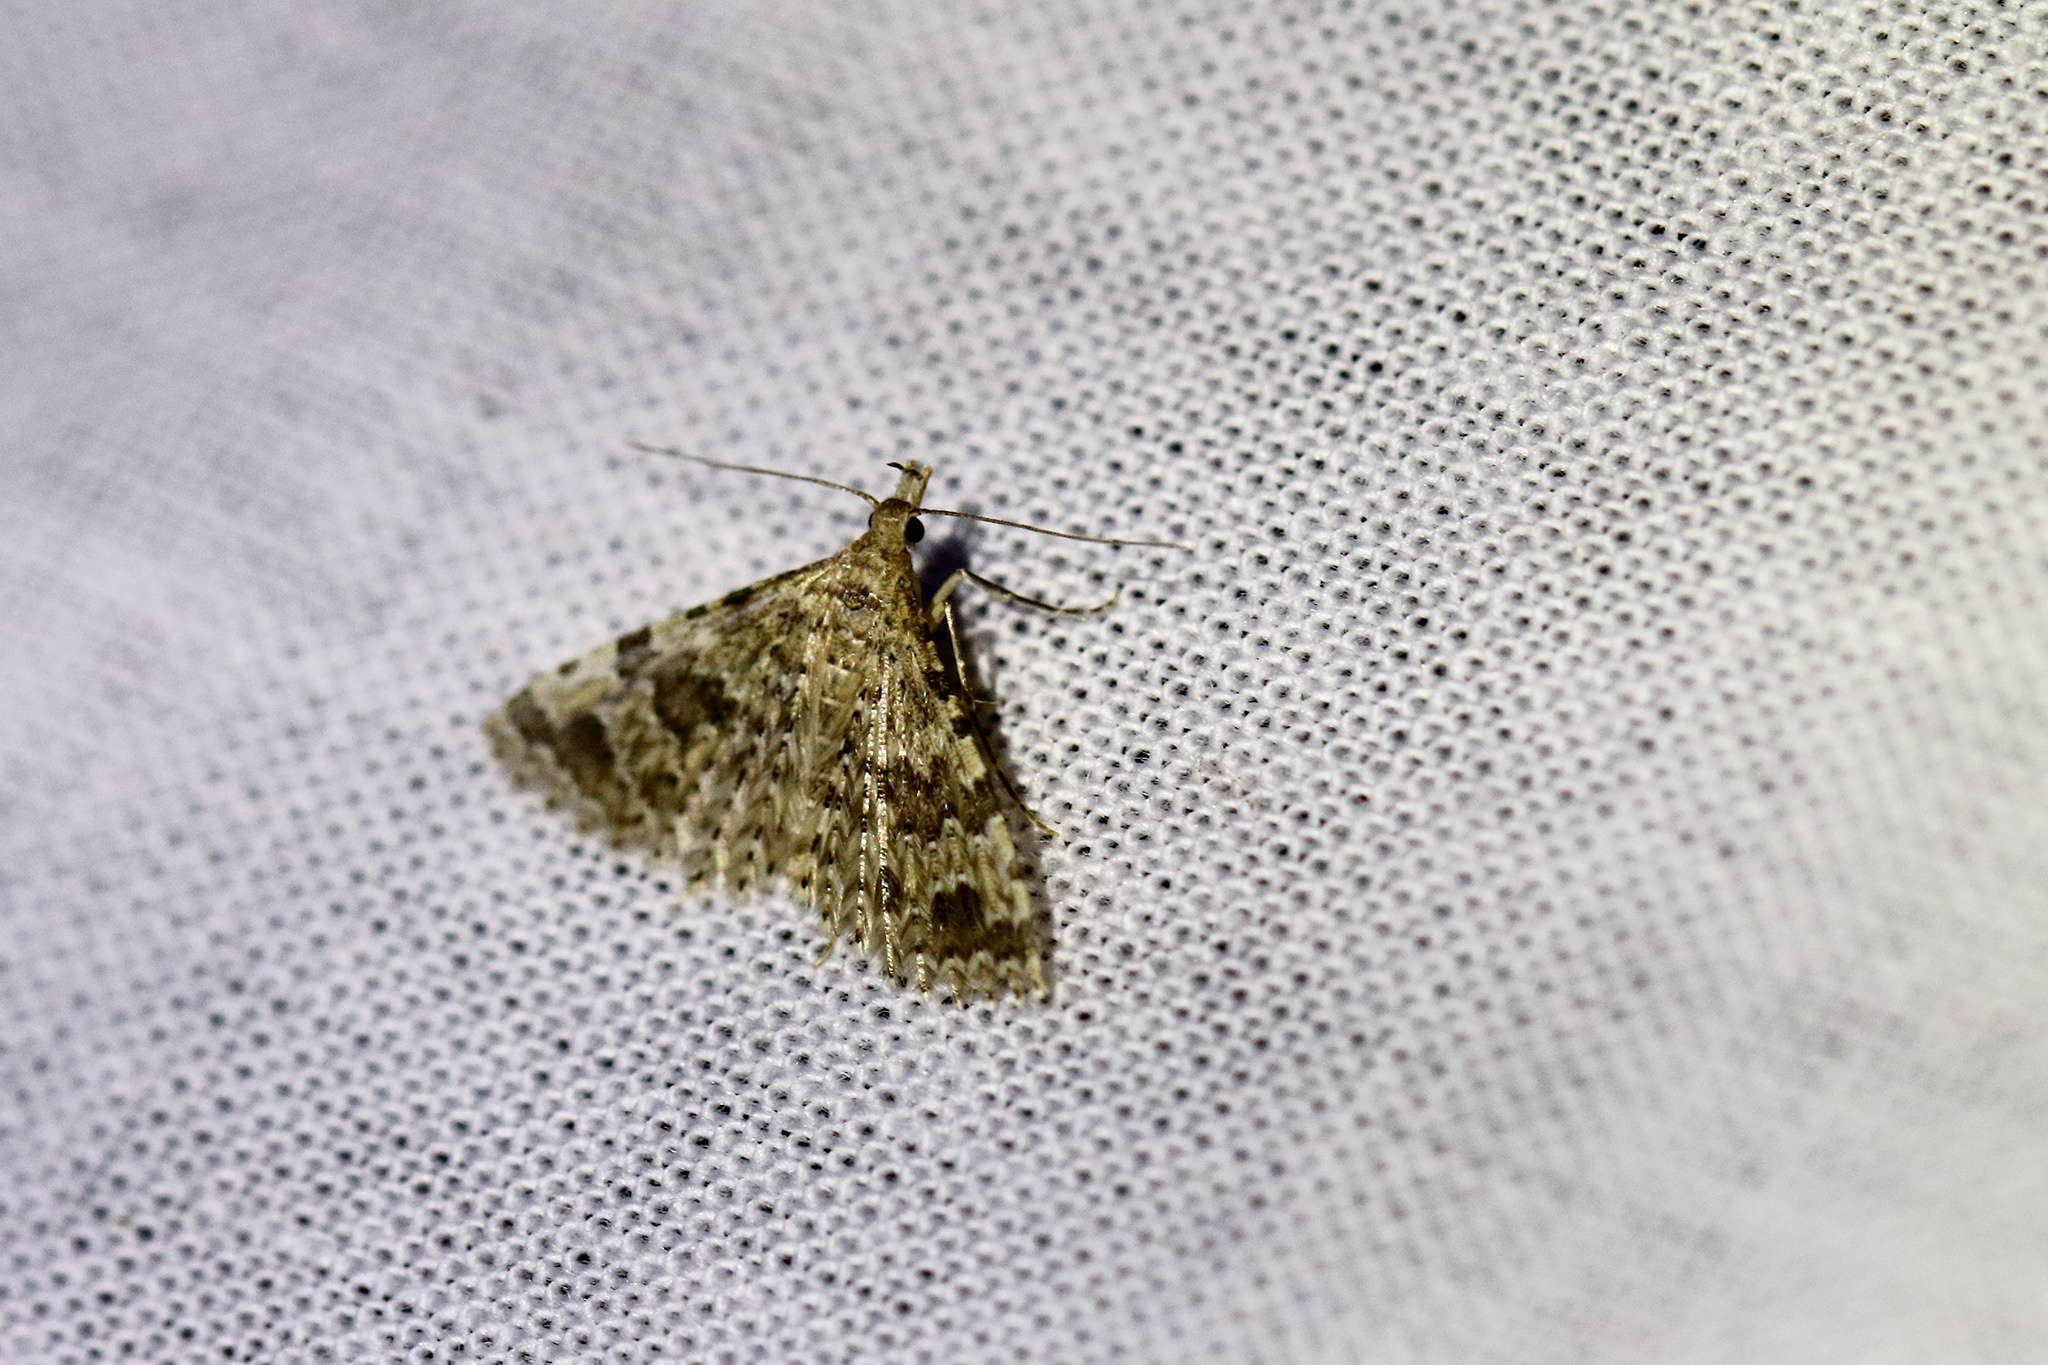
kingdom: Animalia
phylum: Arthropoda
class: Insecta
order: Lepidoptera
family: Alucitidae
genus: Alucita
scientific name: Alucita hexadactyla
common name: Twenty-plume moth
